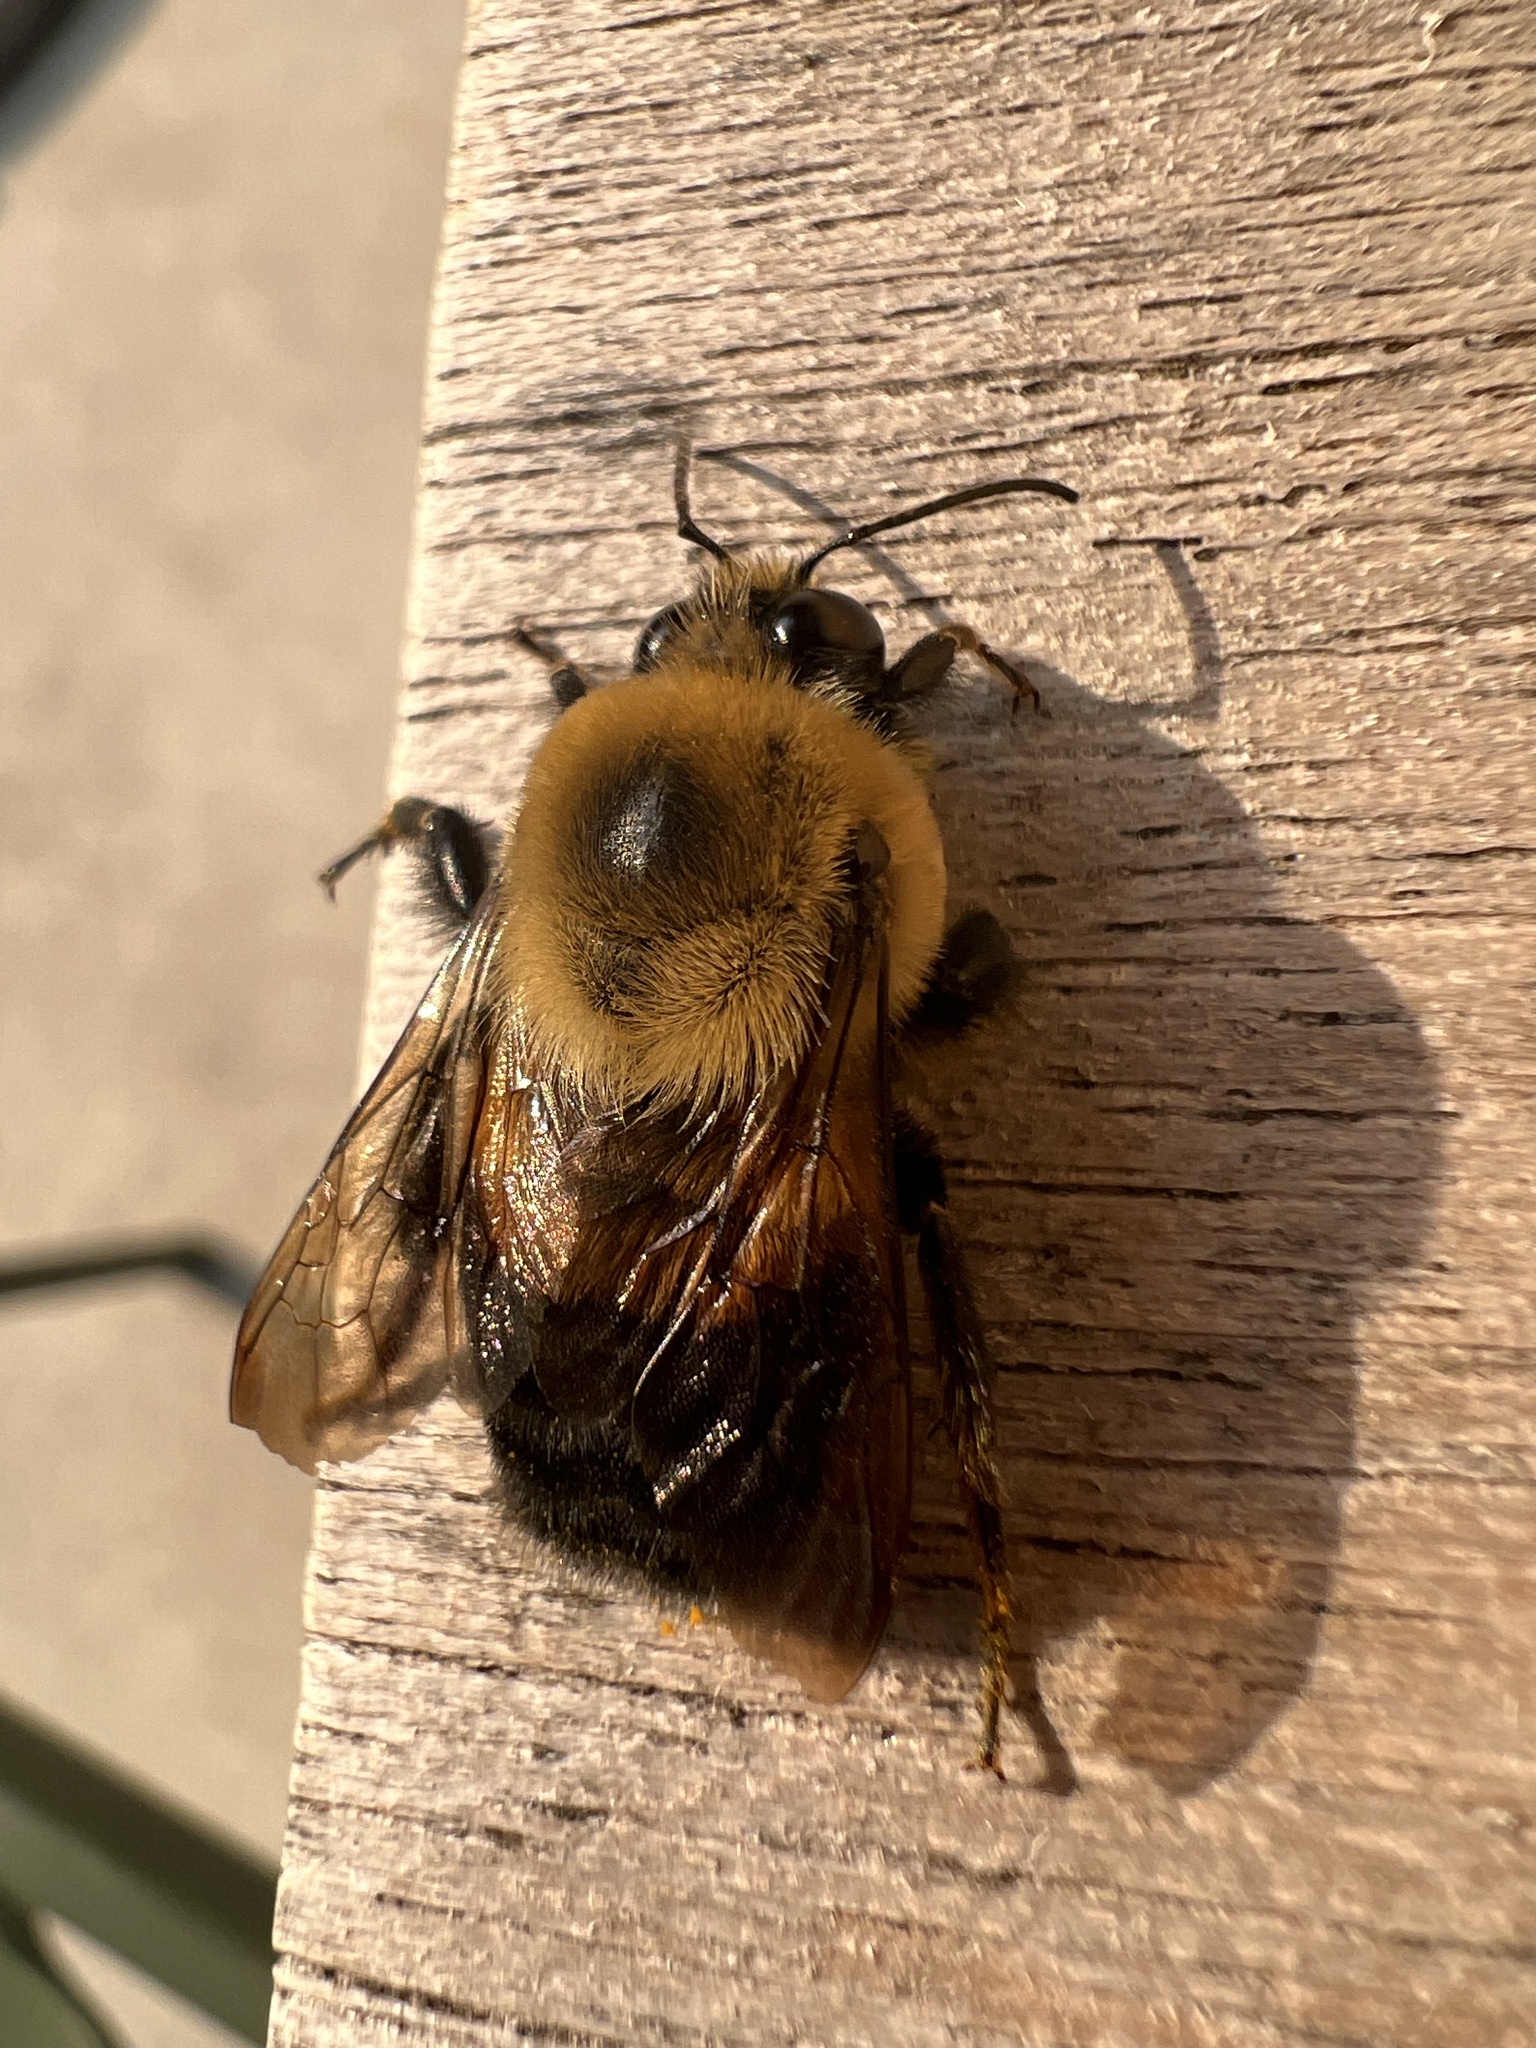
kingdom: Animalia
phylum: Arthropoda
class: Insecta
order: Hymenoptera
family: Apidae
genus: Bombus
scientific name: Bombus griseocollis
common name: Brown-belted bumble bee
